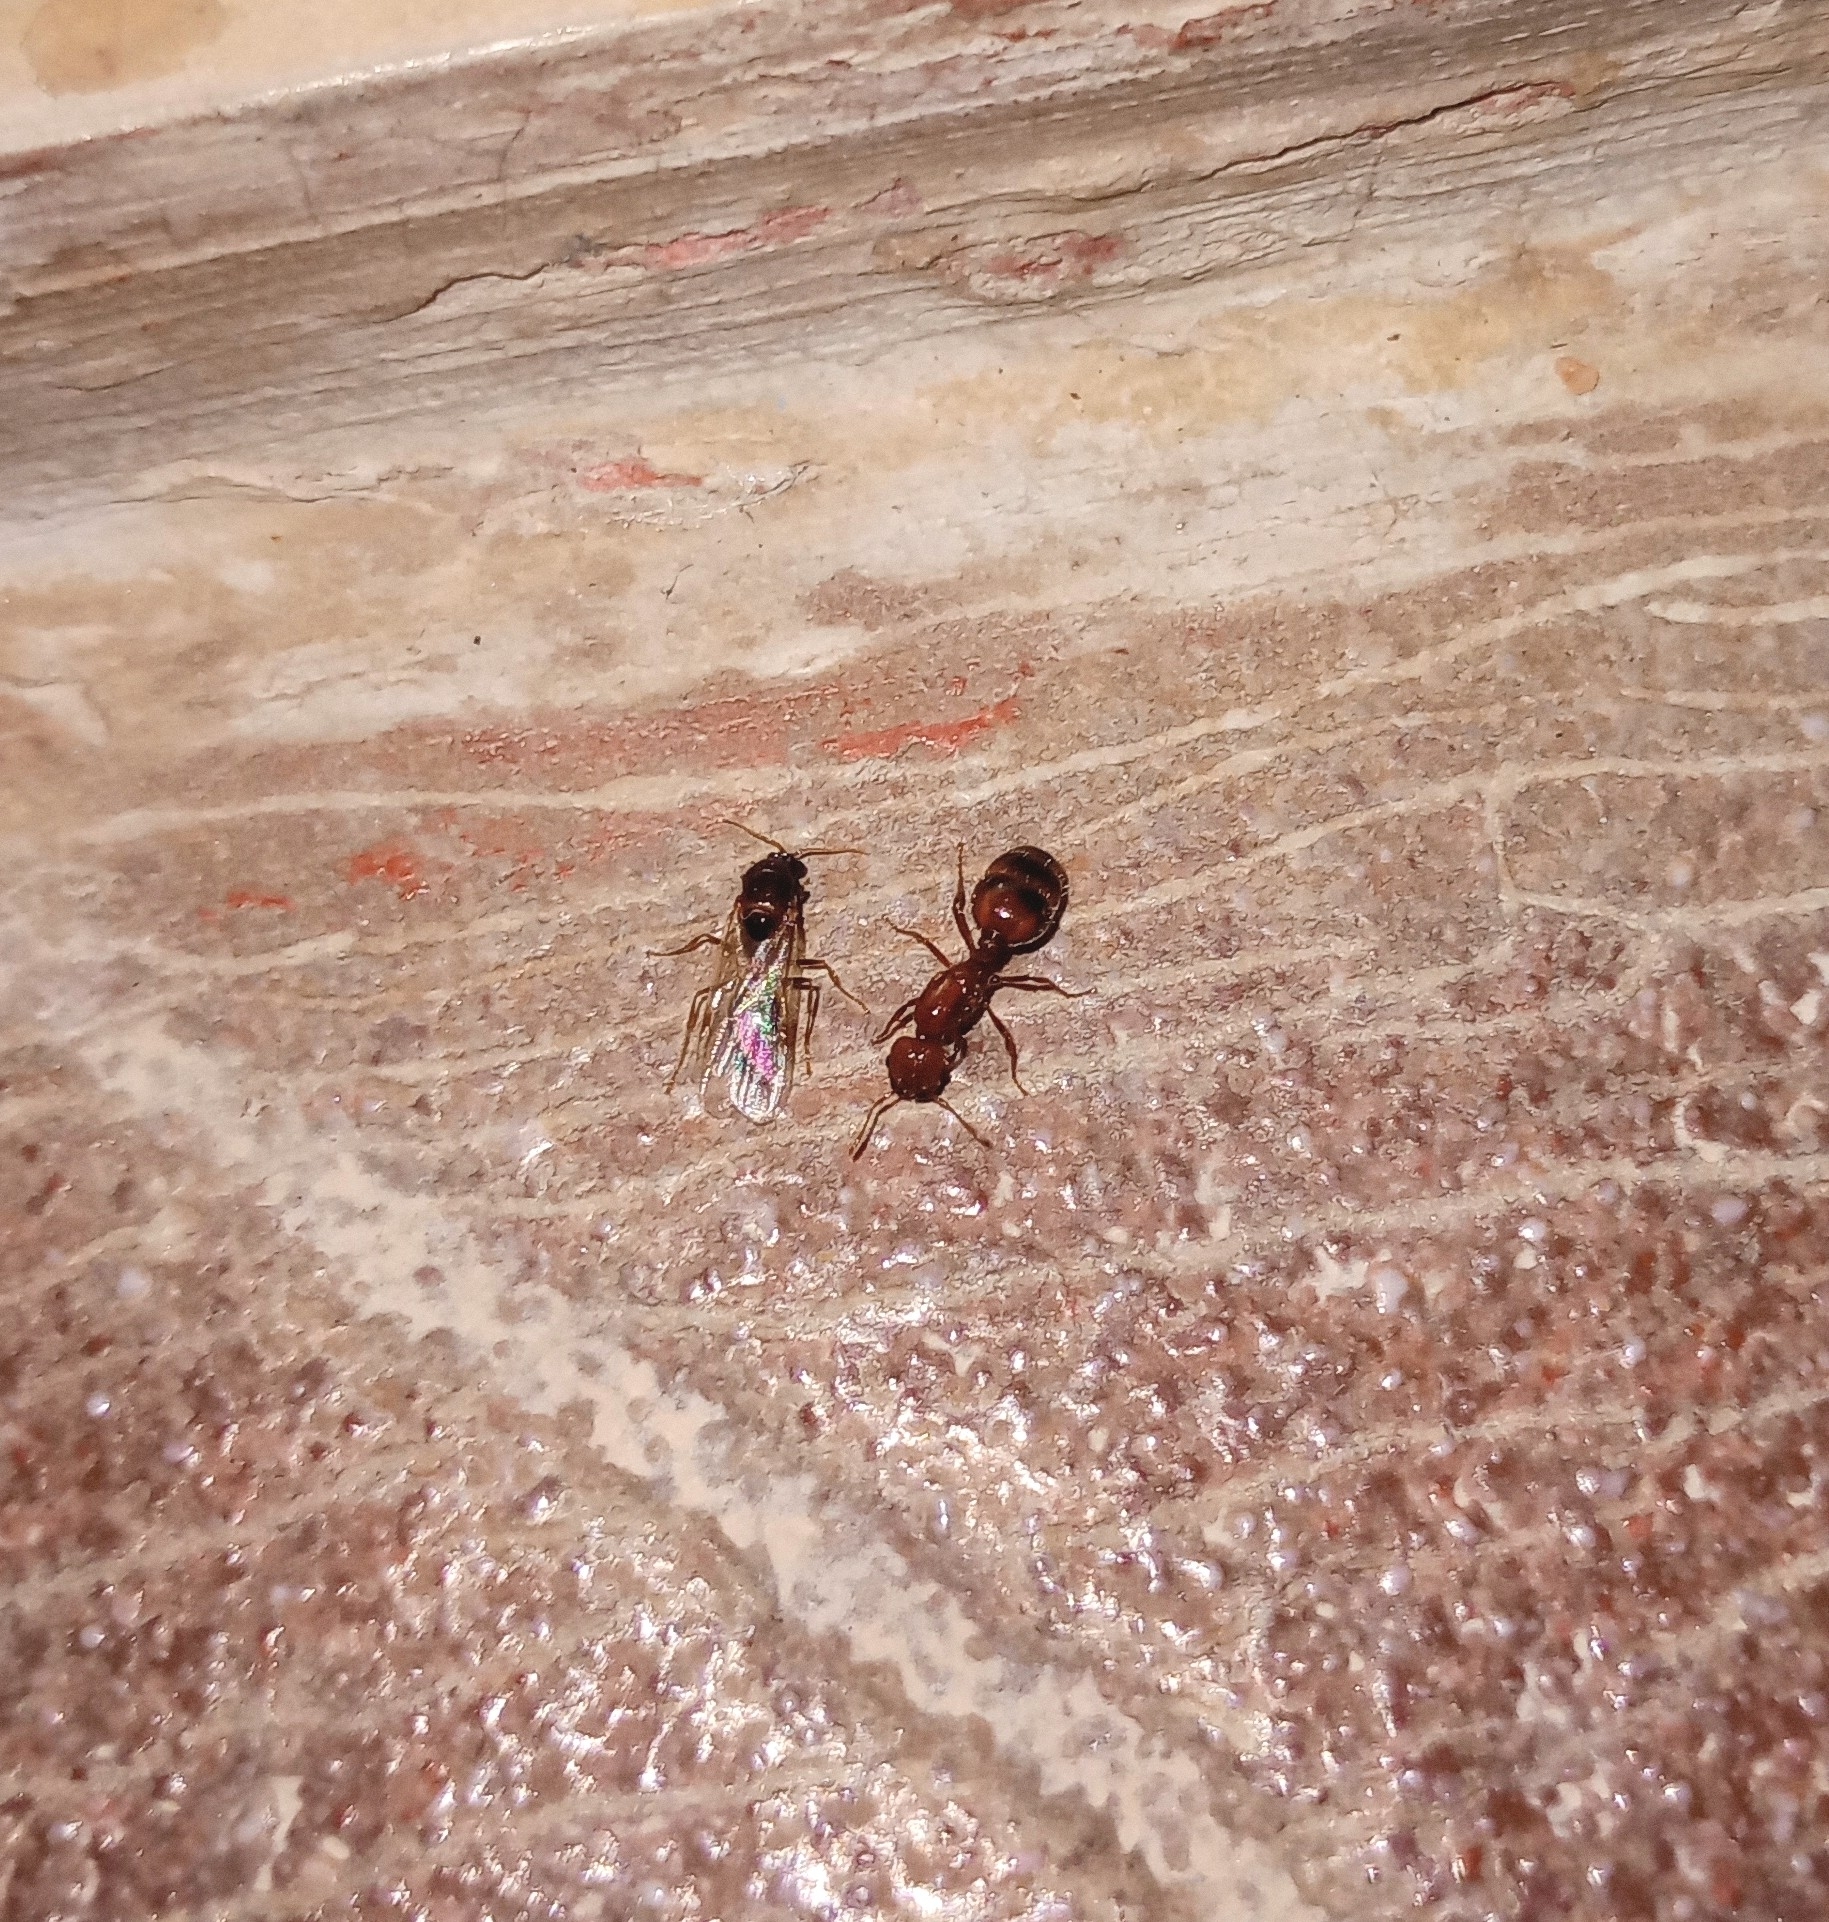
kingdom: Animalia
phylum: Arthropoda
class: Insecta
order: Hymenoptera
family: Formicidae
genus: Solenopsis
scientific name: Solenopsis geminata
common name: Tropical fire ant
